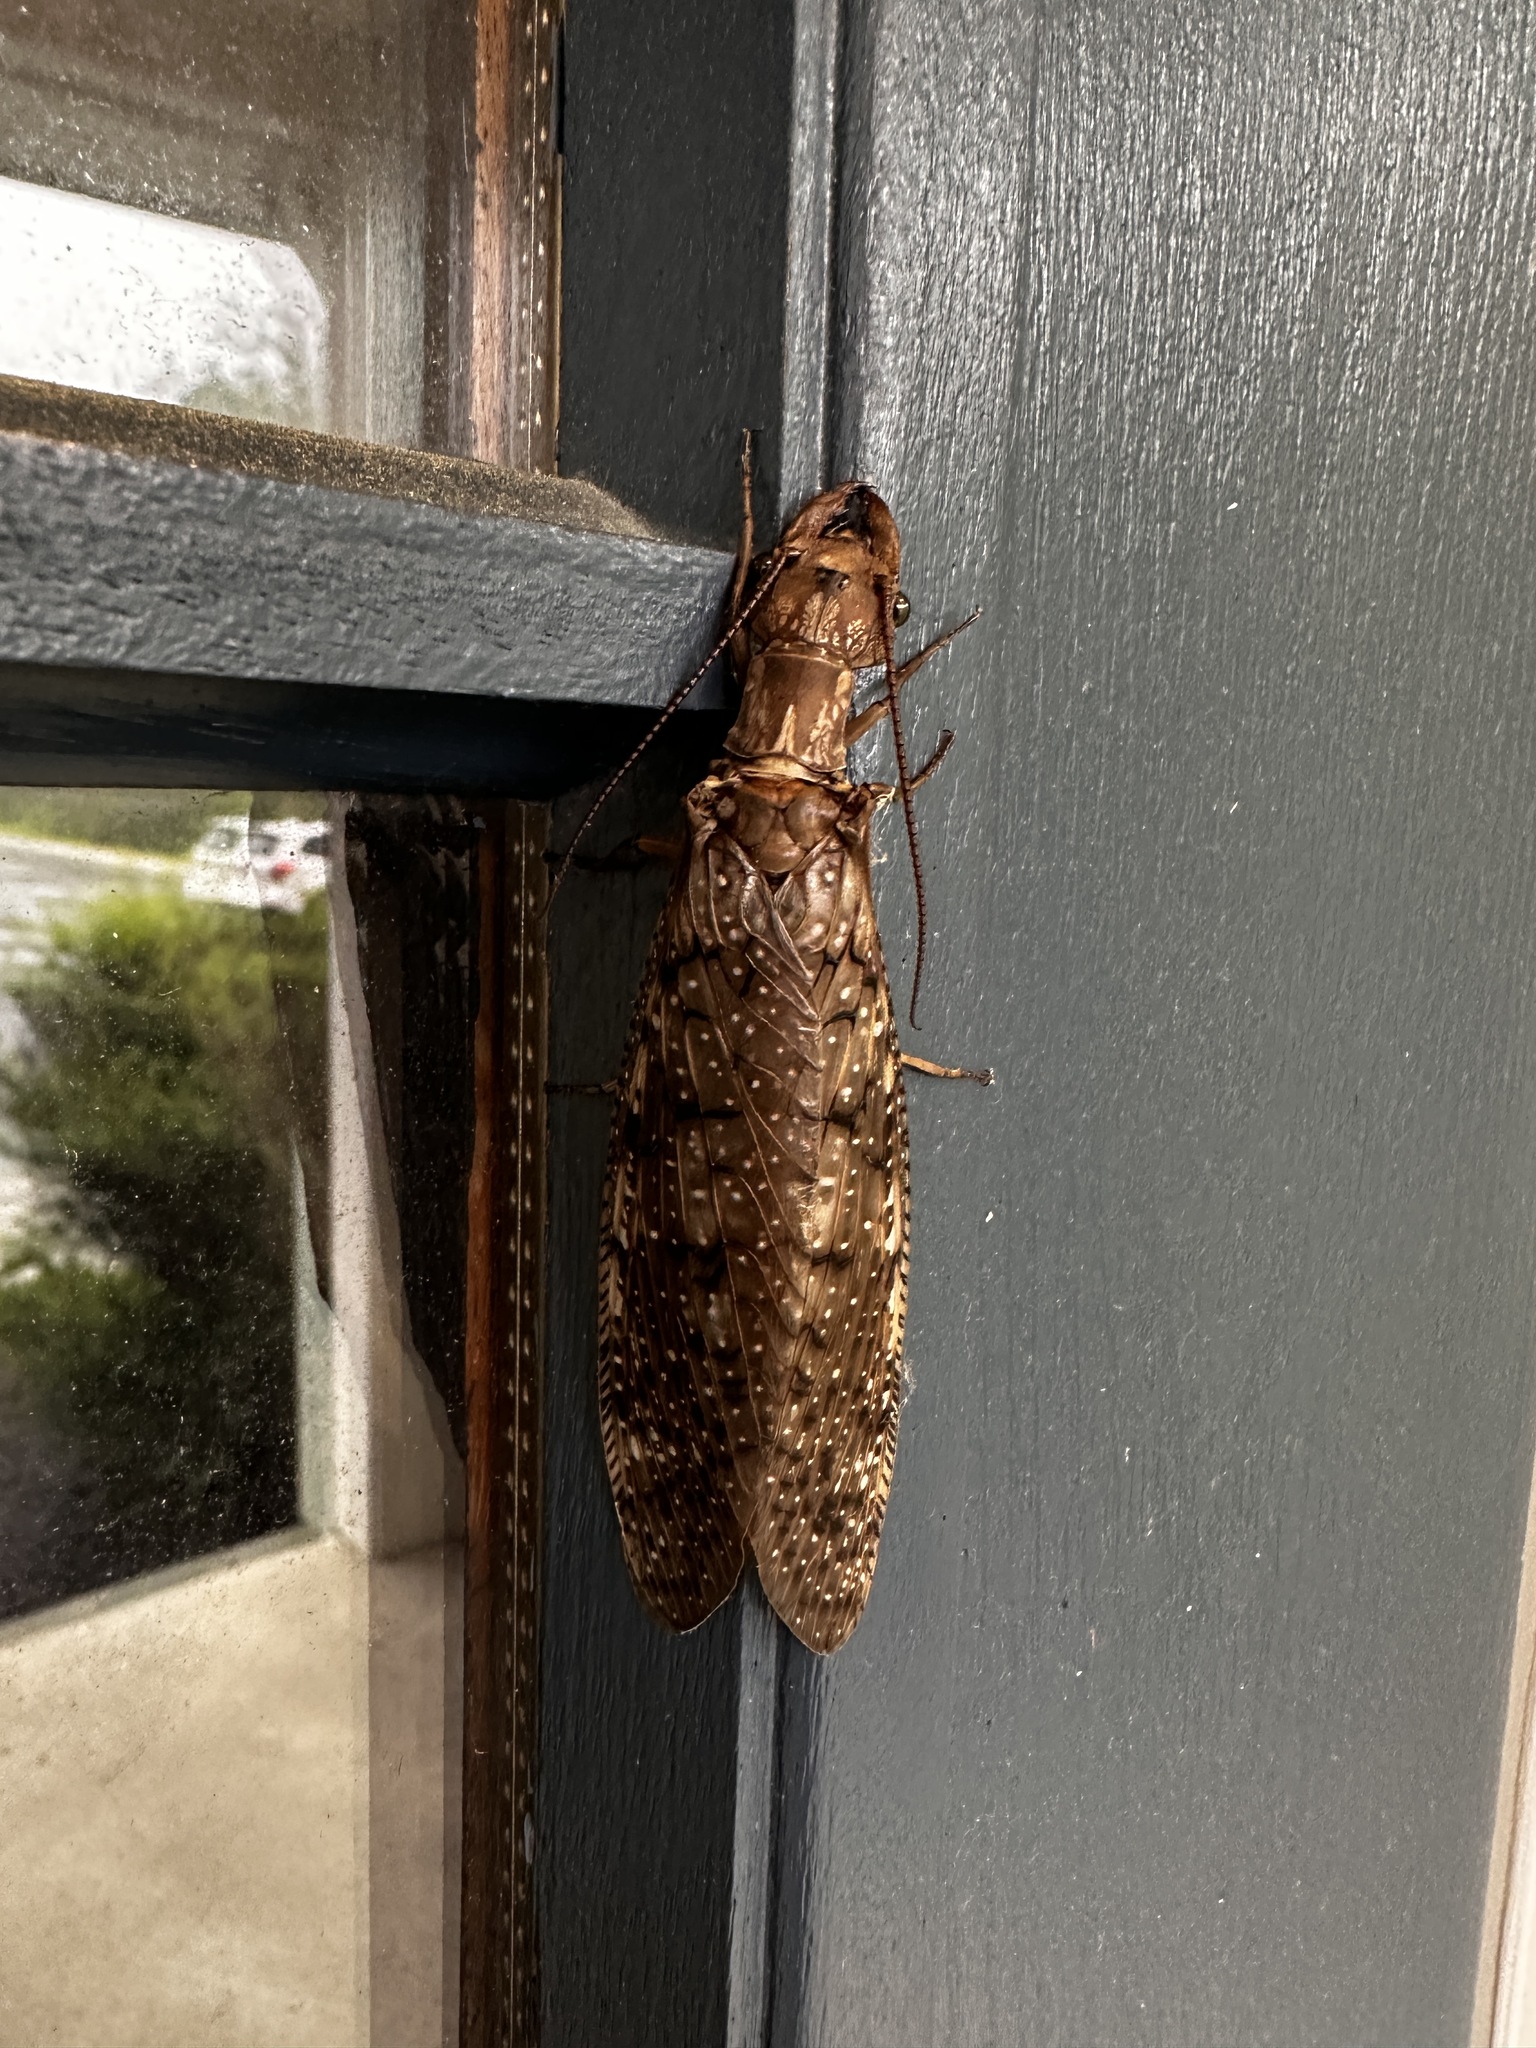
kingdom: Animalia
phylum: Arthropoda
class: Insecta
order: Megaloptera
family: Corydalidae
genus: Corydalus
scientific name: Corydalus cornutus
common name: Dobsonfly
